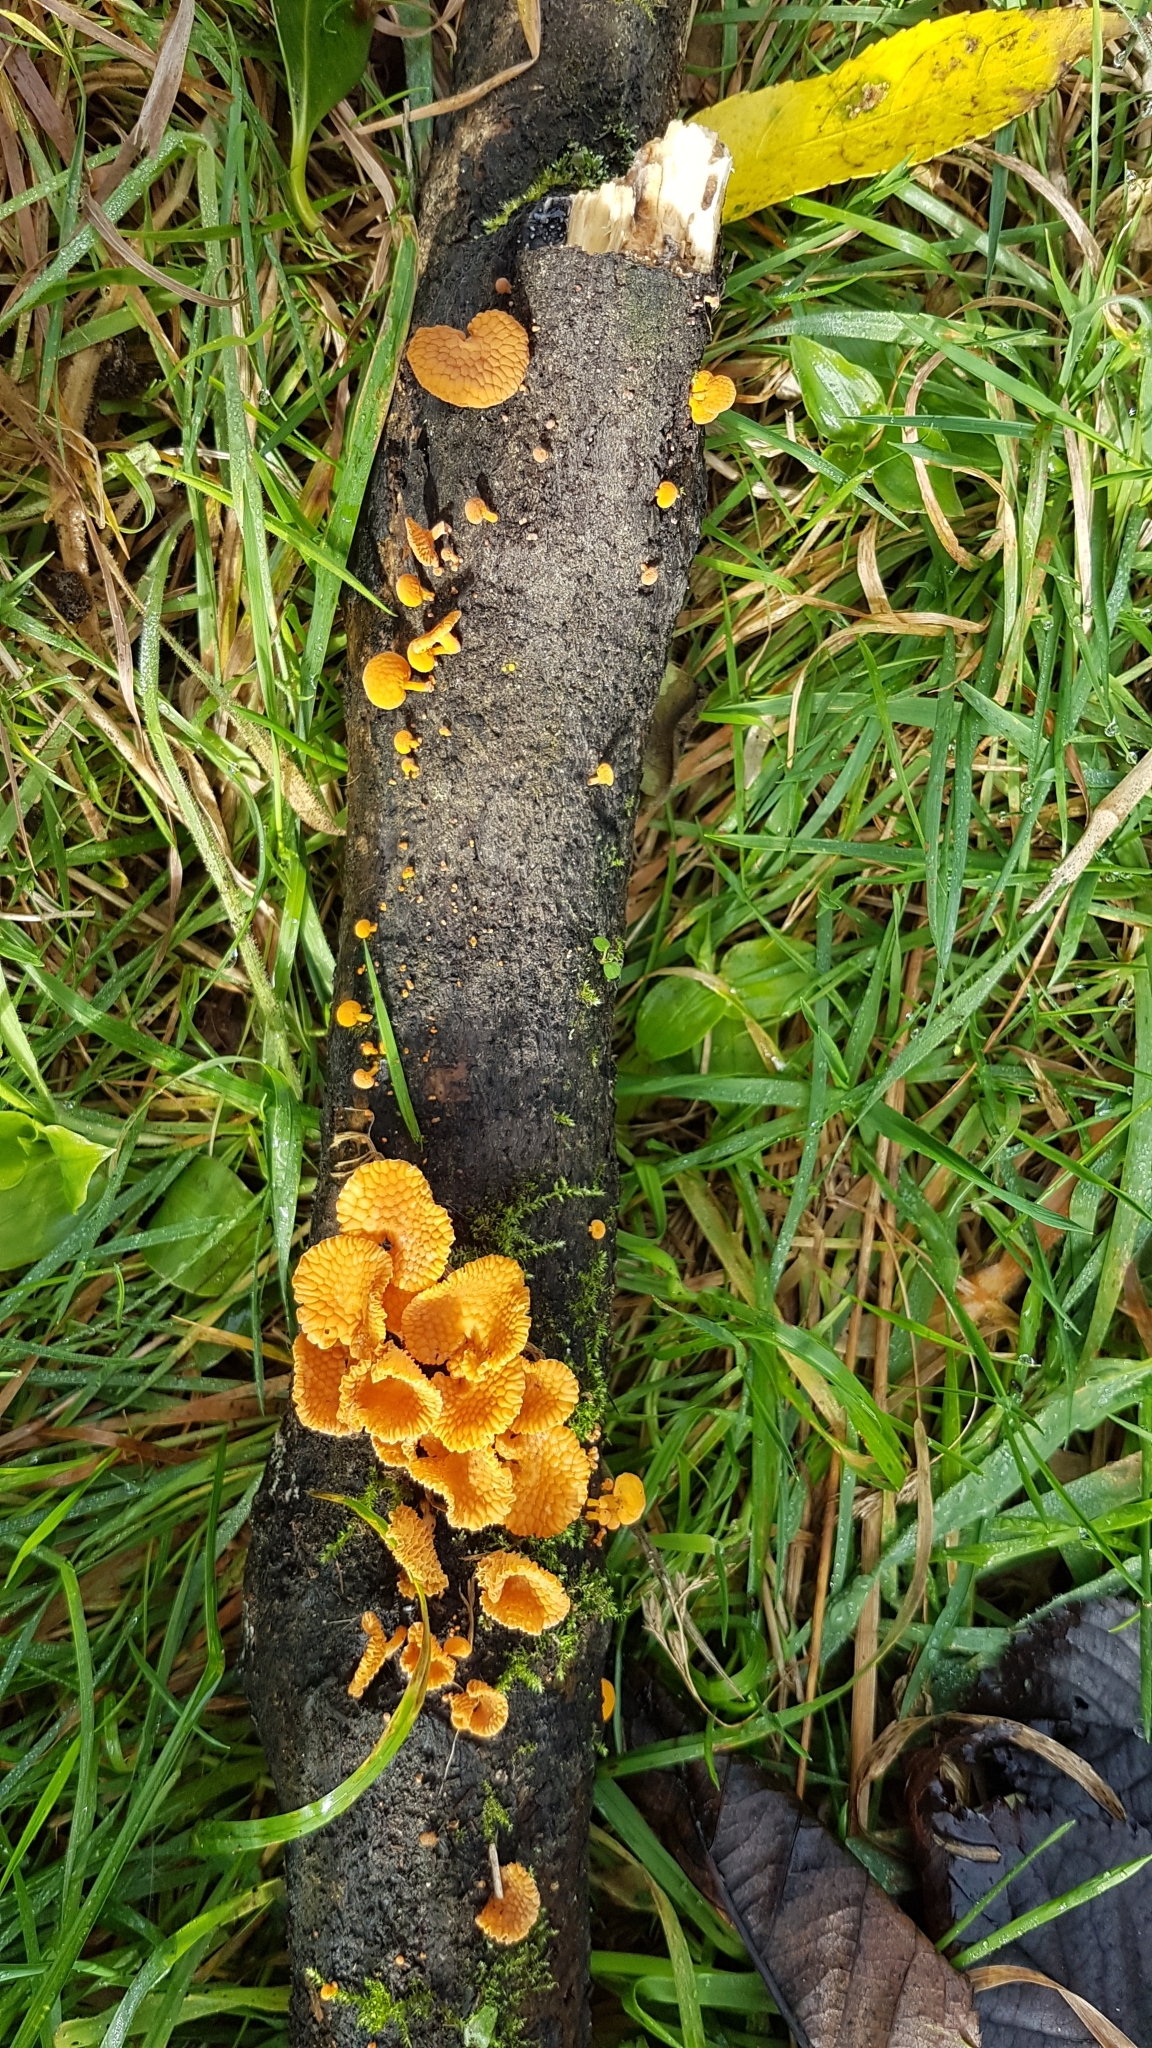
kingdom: Fungi
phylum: Basidiomycota
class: Agaricomycetes
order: Agaricales
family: Mycenaceae
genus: Favolaschia
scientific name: Favolaschia claudopus
